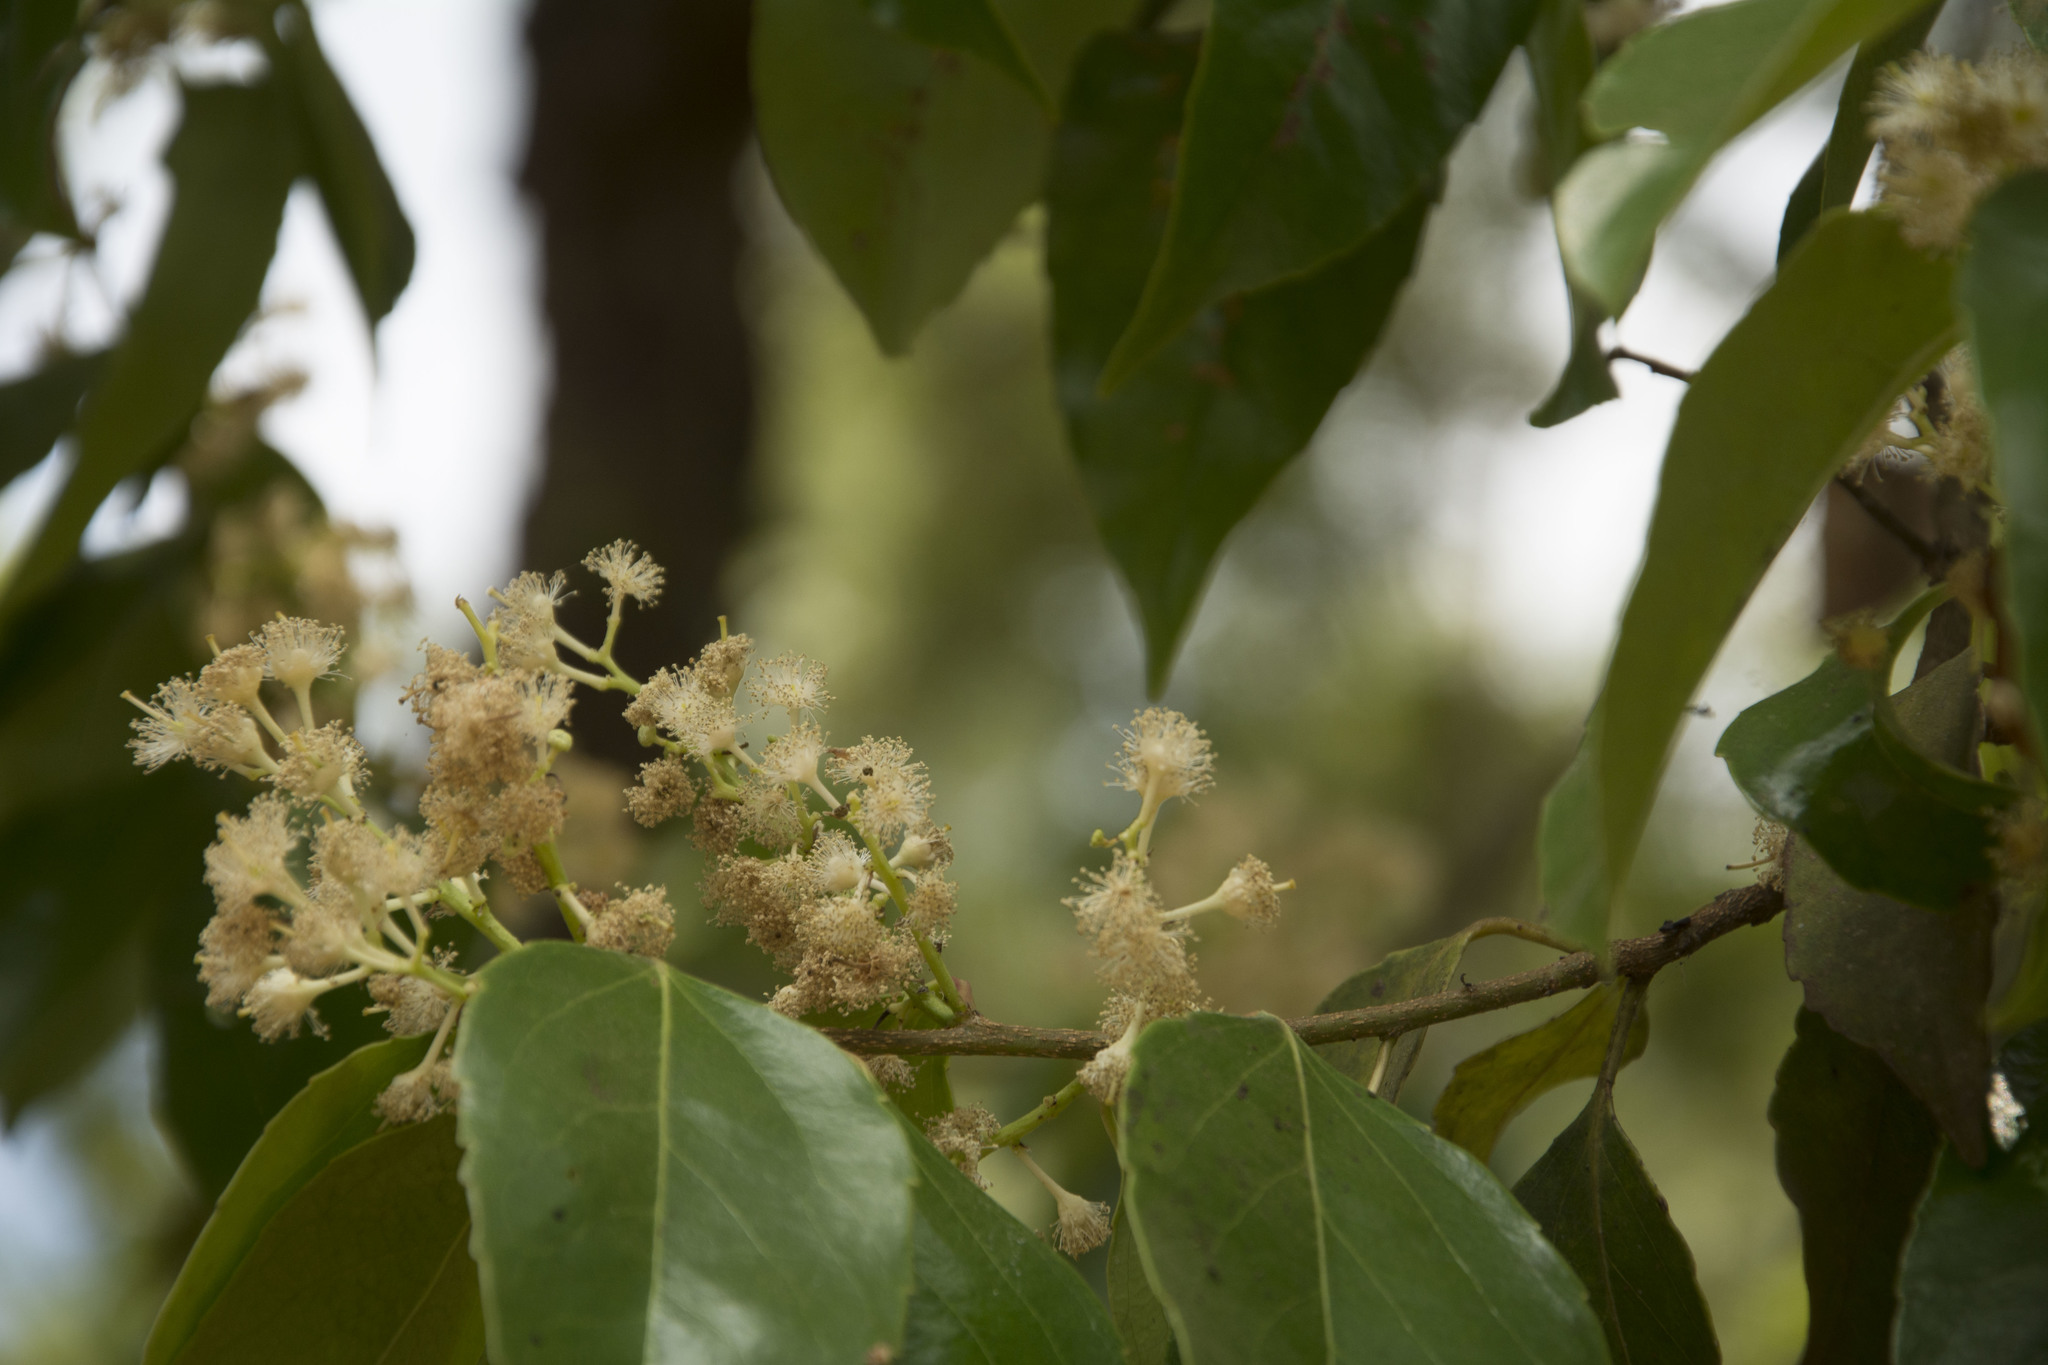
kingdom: Plantae
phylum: Tracheophyta
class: Magnoliopsida
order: Malpighiales
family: Salicaceae
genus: Scolopia
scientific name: Scolopia crenata
